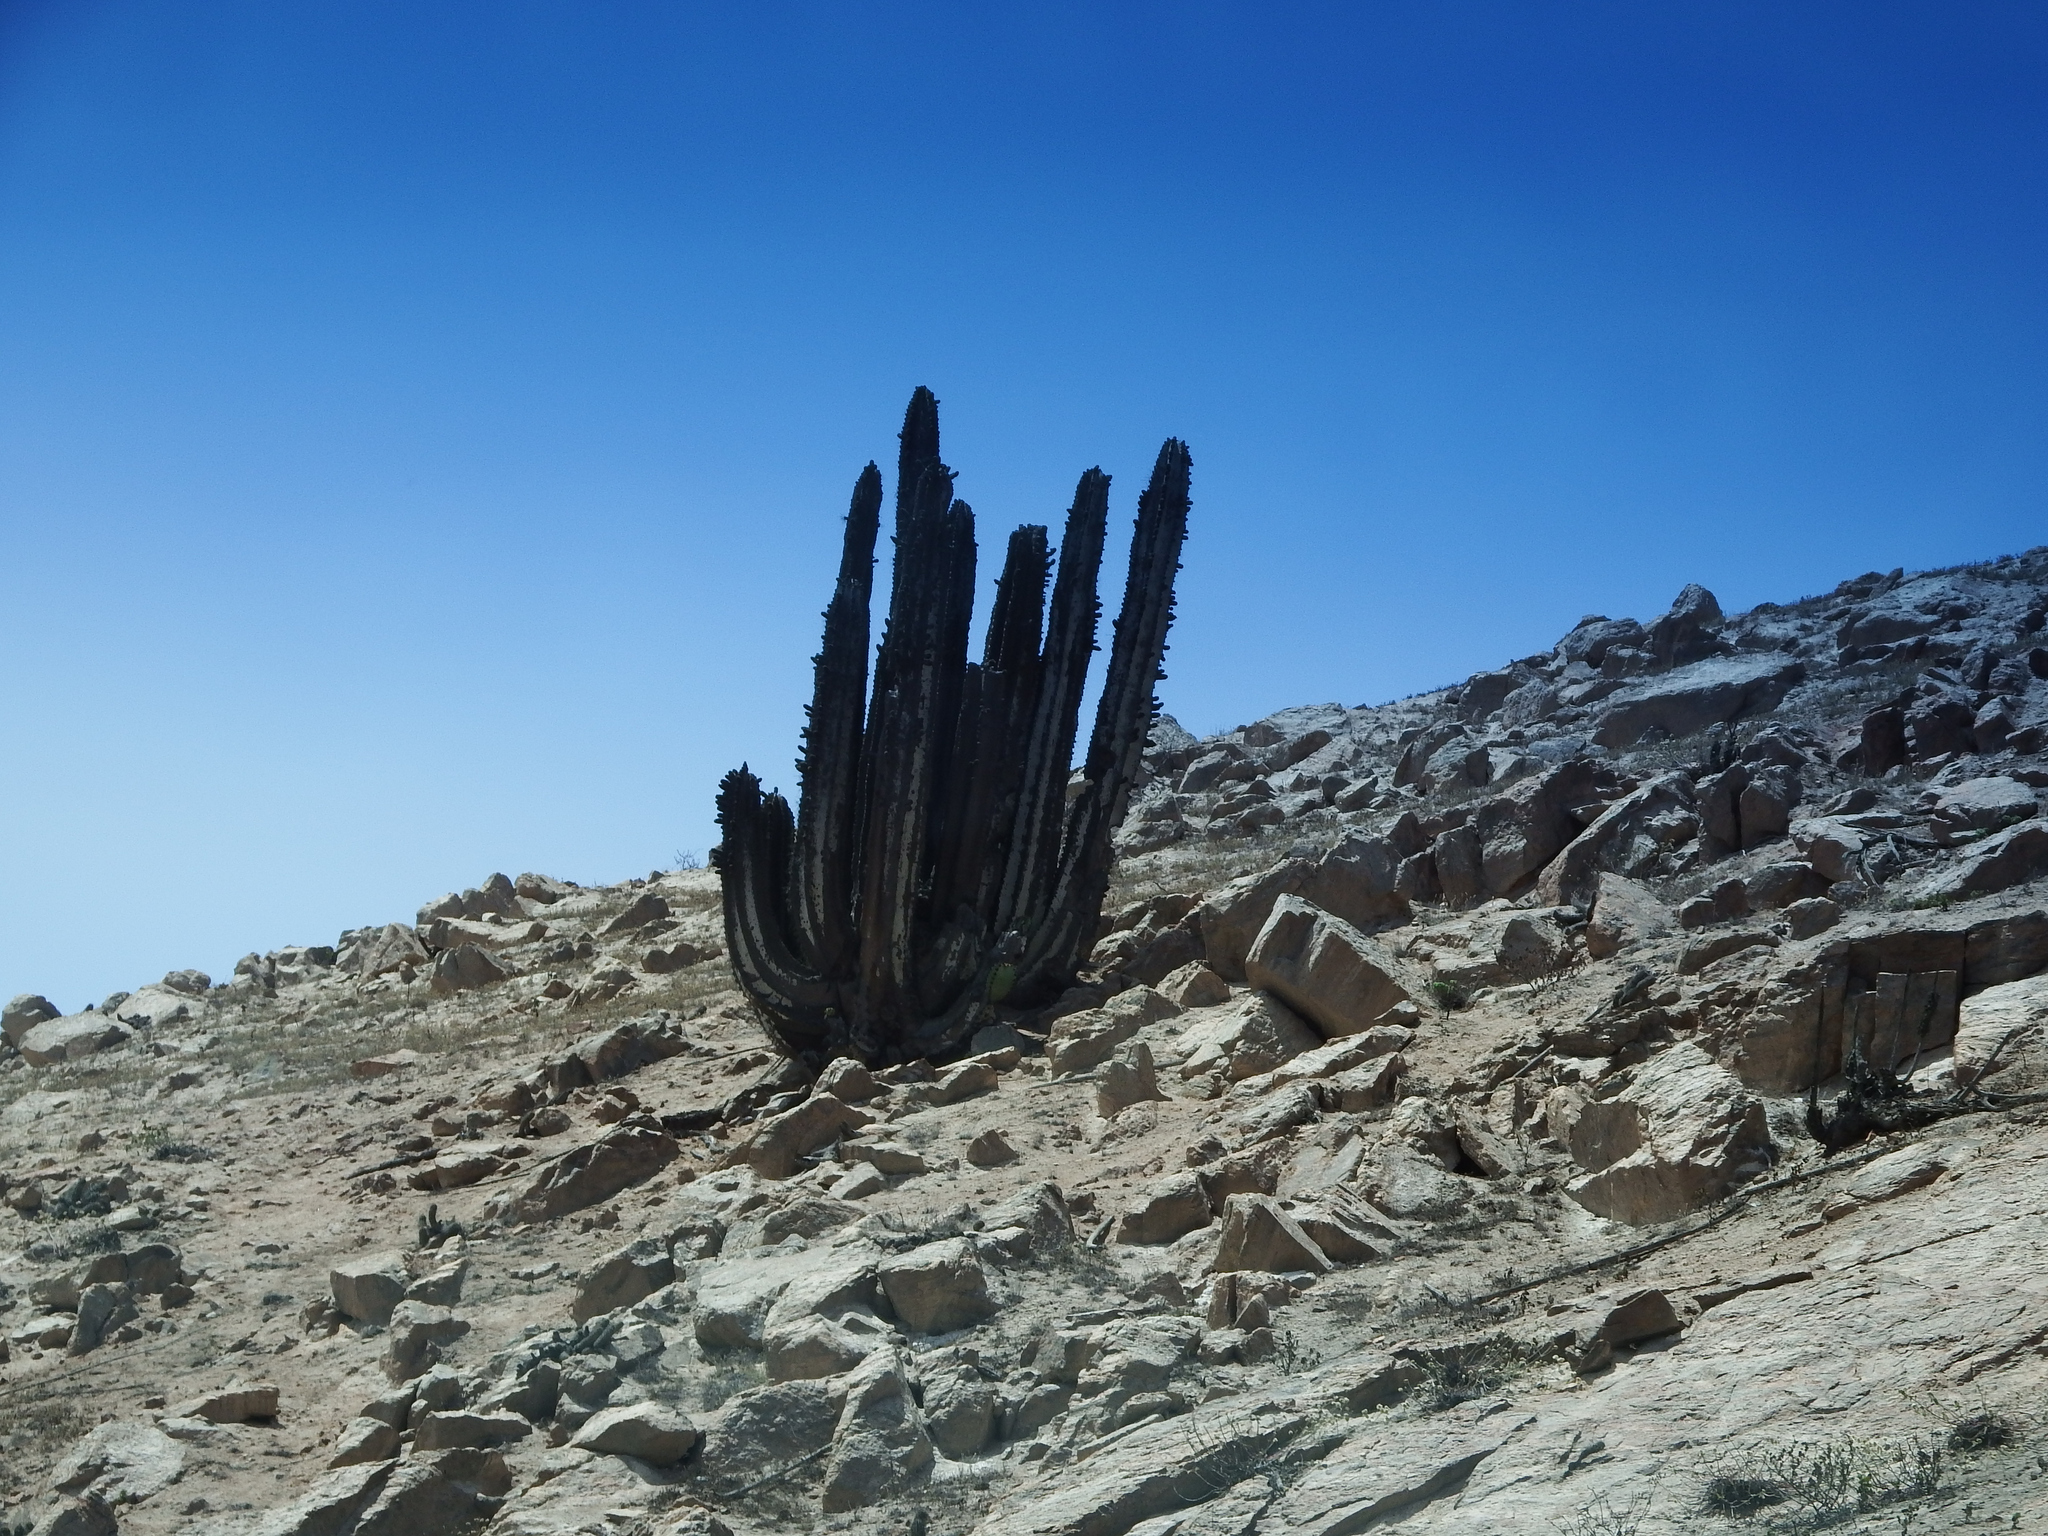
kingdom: Plantae
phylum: Tracheophyta
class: Magnoliopsida
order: Caryophyllales
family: Cactaceae
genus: Neoraimondia
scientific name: Neoraimondia arequipensis
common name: Big-bed-of-straw
